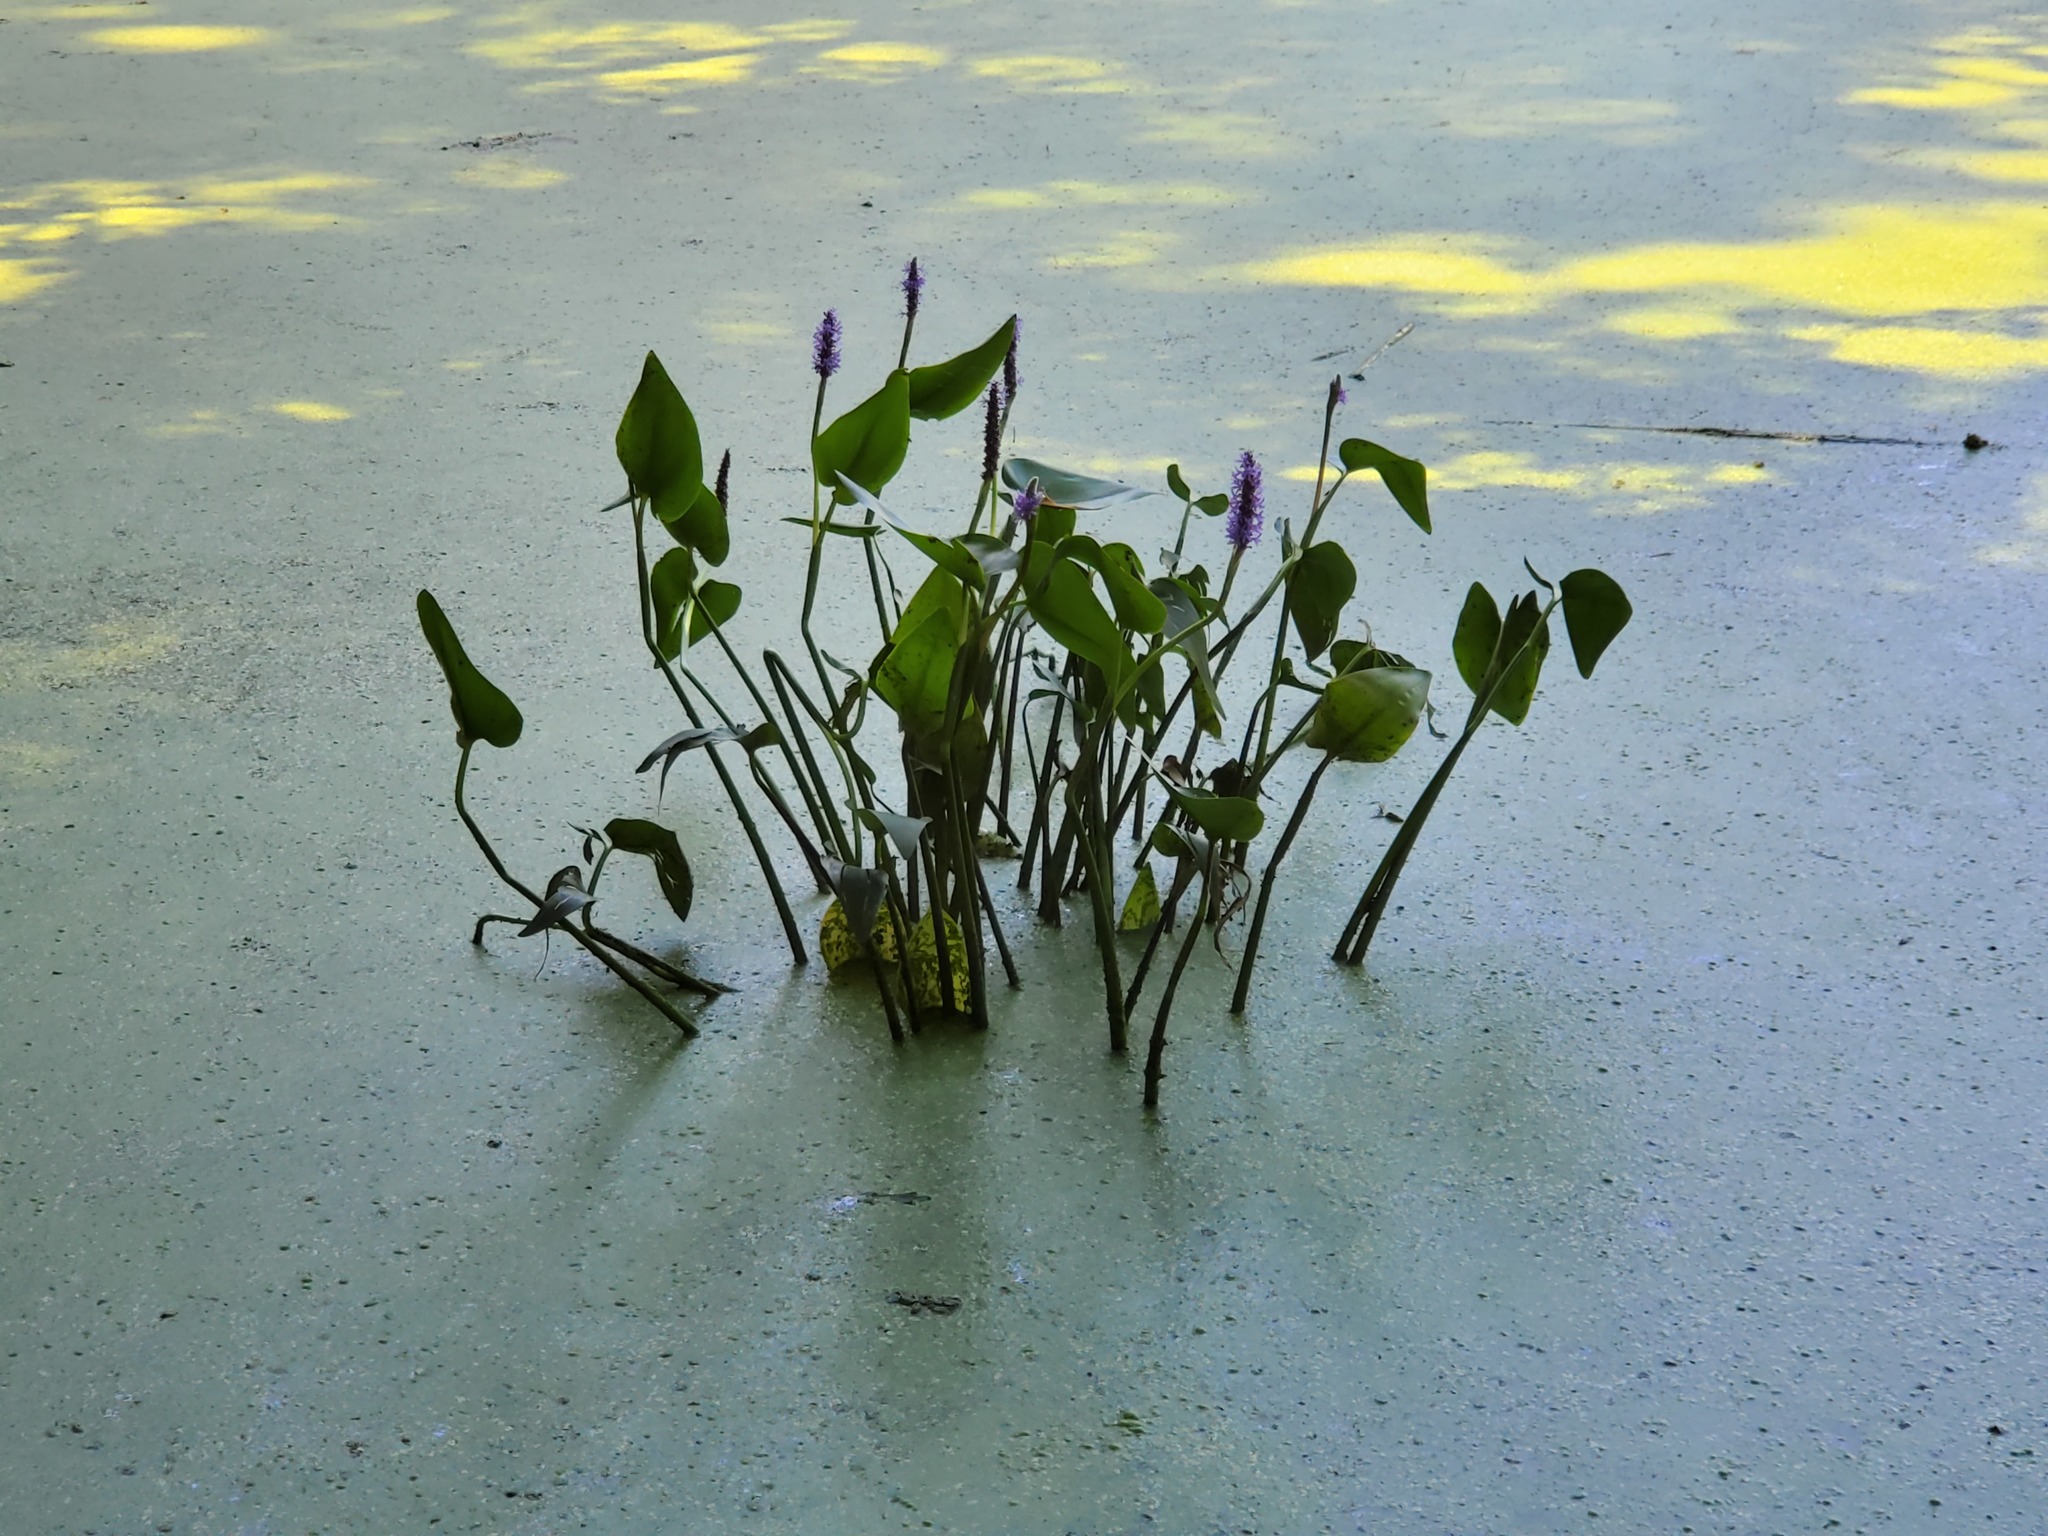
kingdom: Plantae
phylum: Tracheophyta
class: Liliopsida
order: Commelinales
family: Pontederiaceae
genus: Pontederia
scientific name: Pontederia cordata
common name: Pickerelweed
